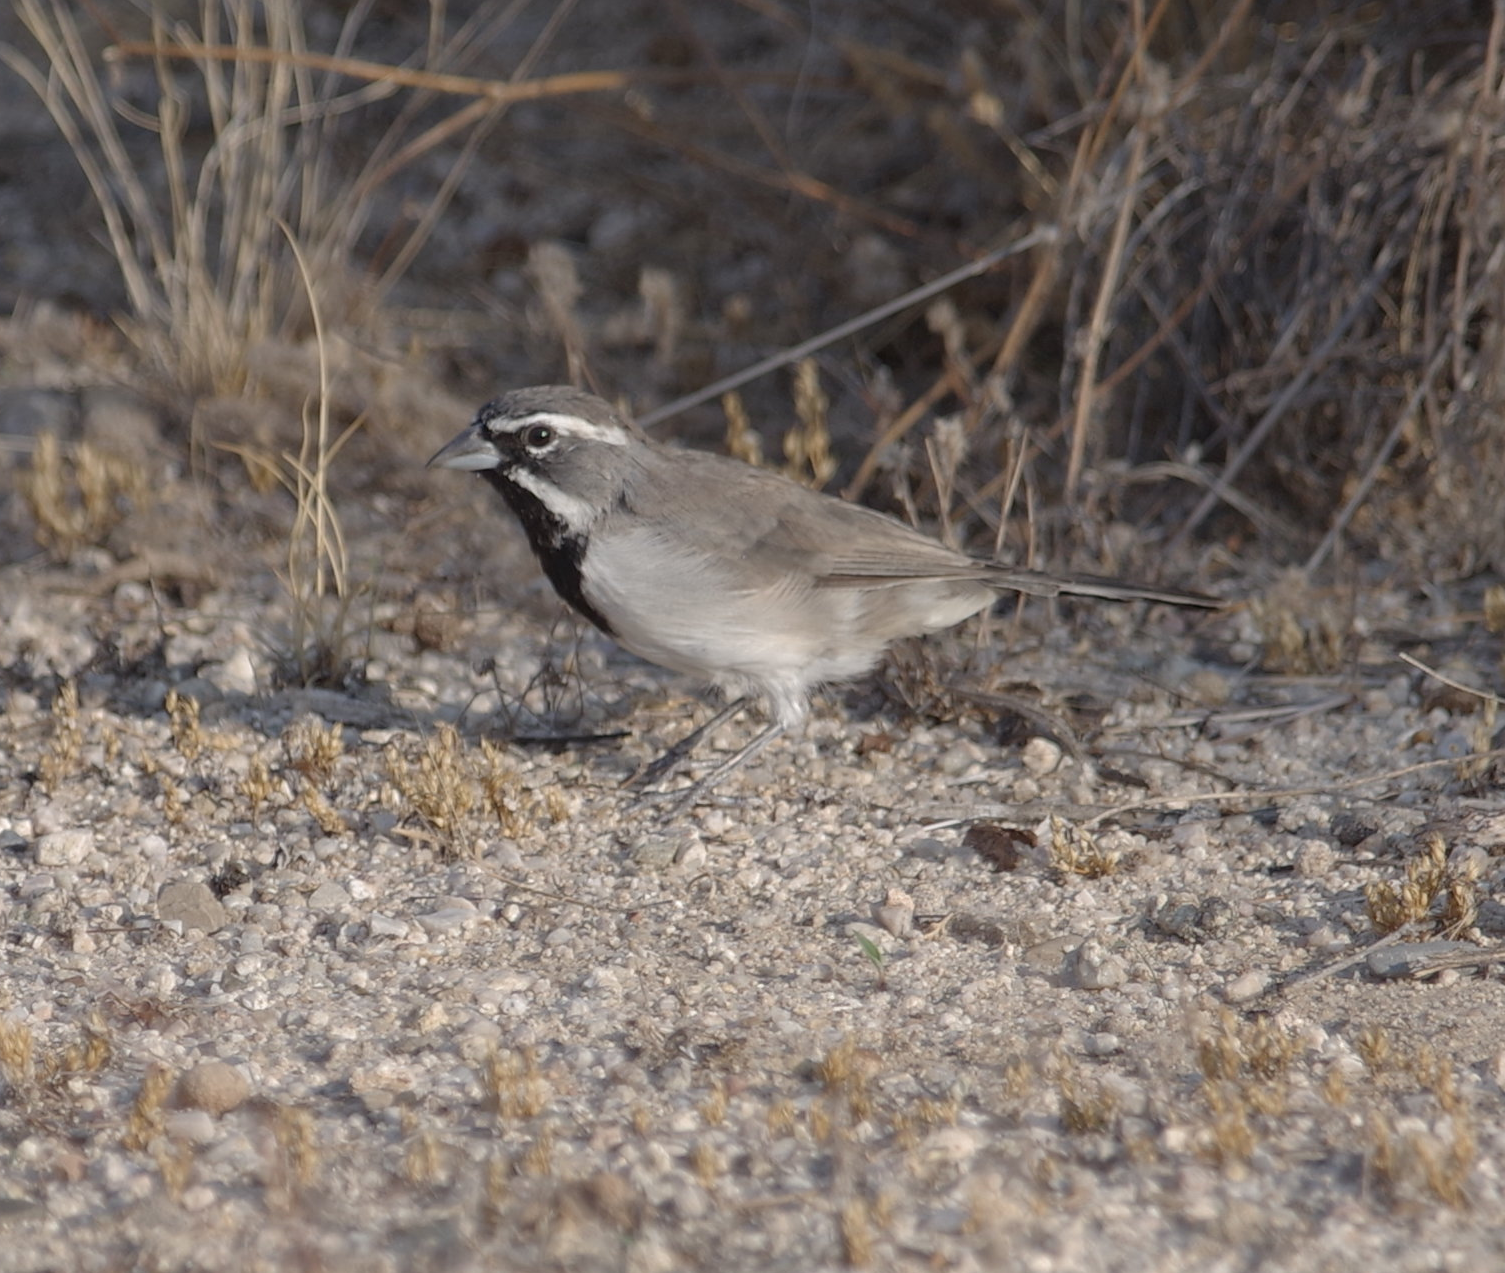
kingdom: Animalia
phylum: Chordata
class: Aves
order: Passeriformes
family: Passerellidae
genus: Amphispiza
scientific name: Amphispiza bilineata
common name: Black-throated sparrow
